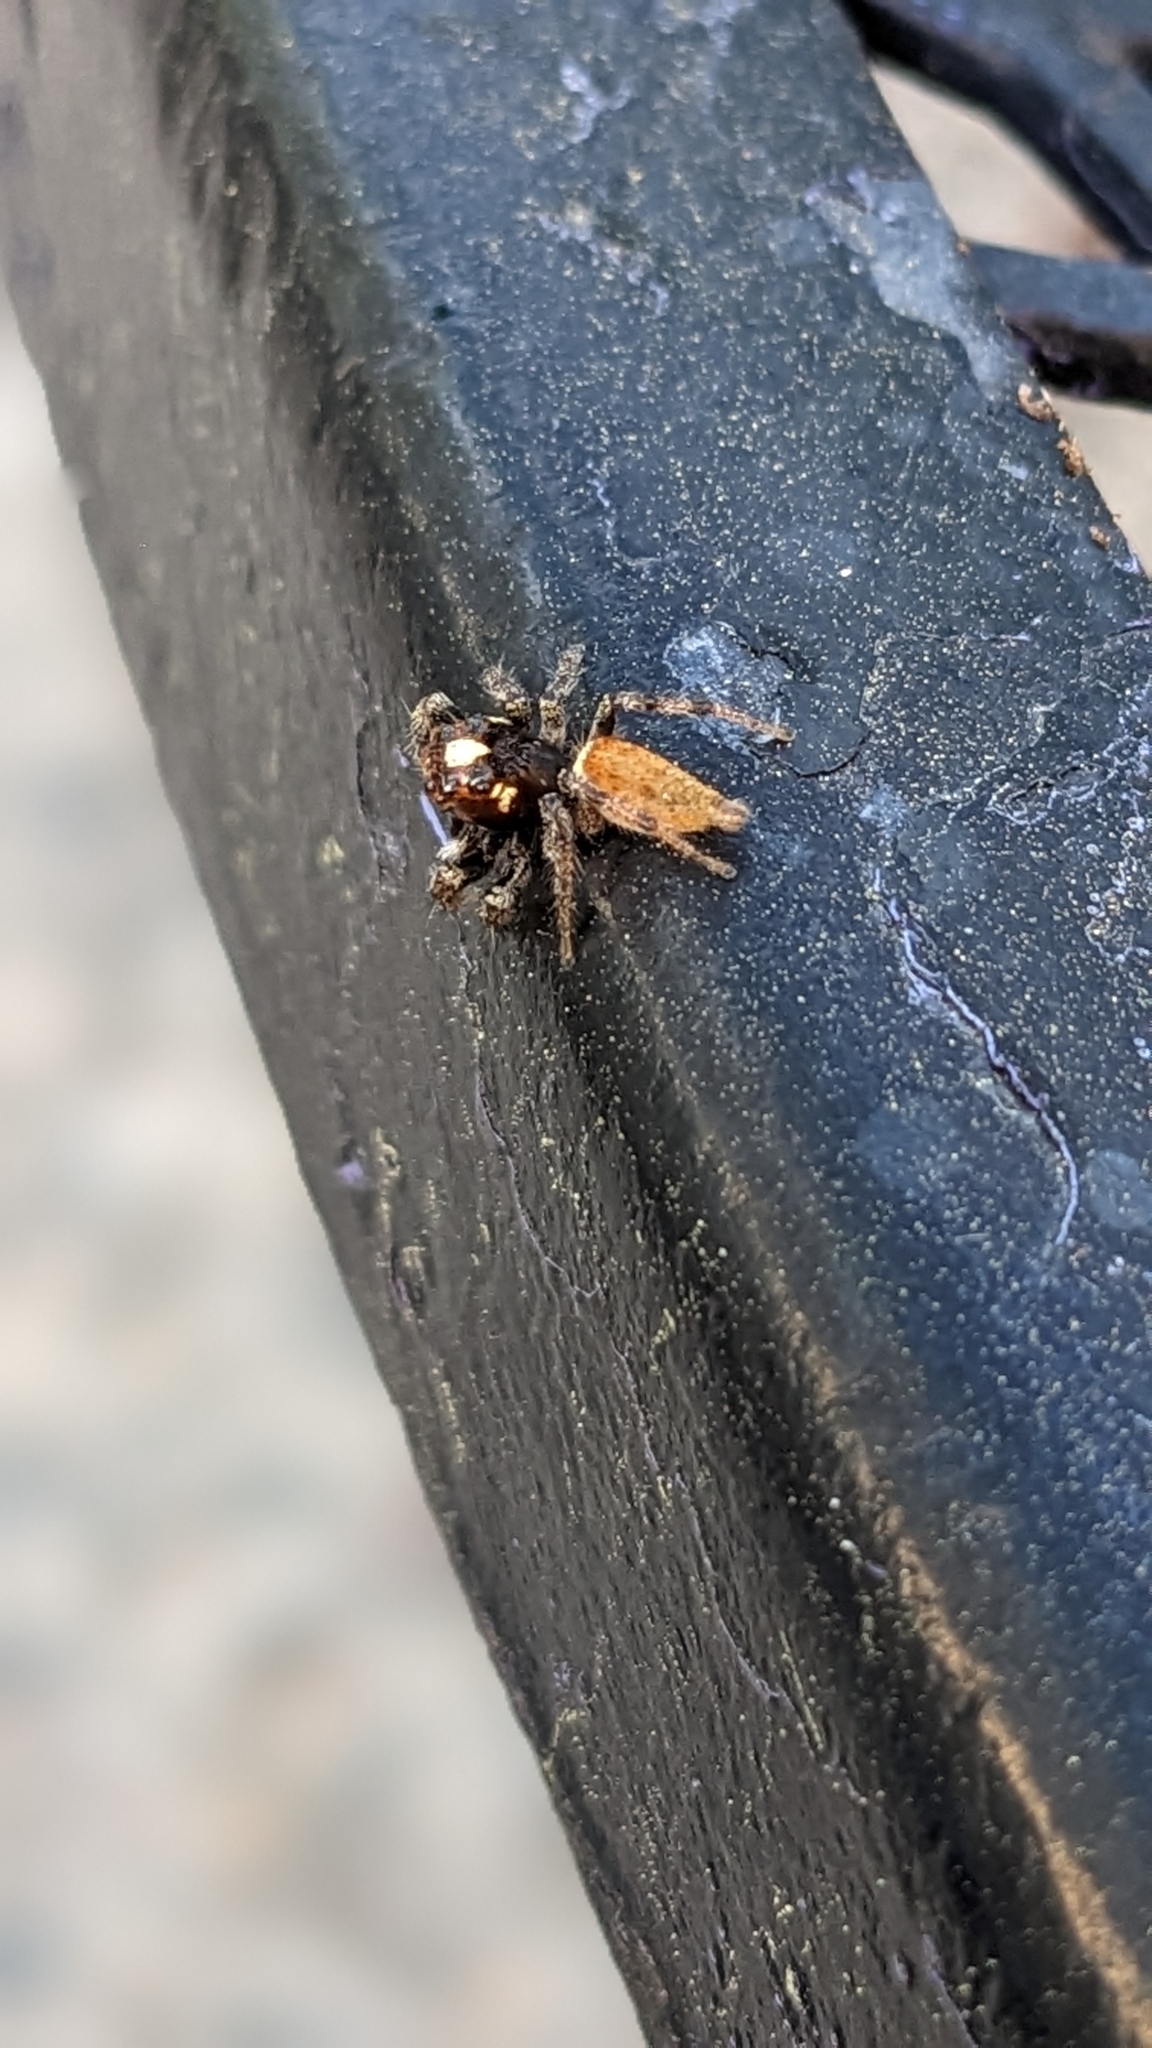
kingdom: Animalia
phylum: Arthropoda
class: Arachnida
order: Araneae
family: Salticidae
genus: Colonus
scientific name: Colonus hesperus
